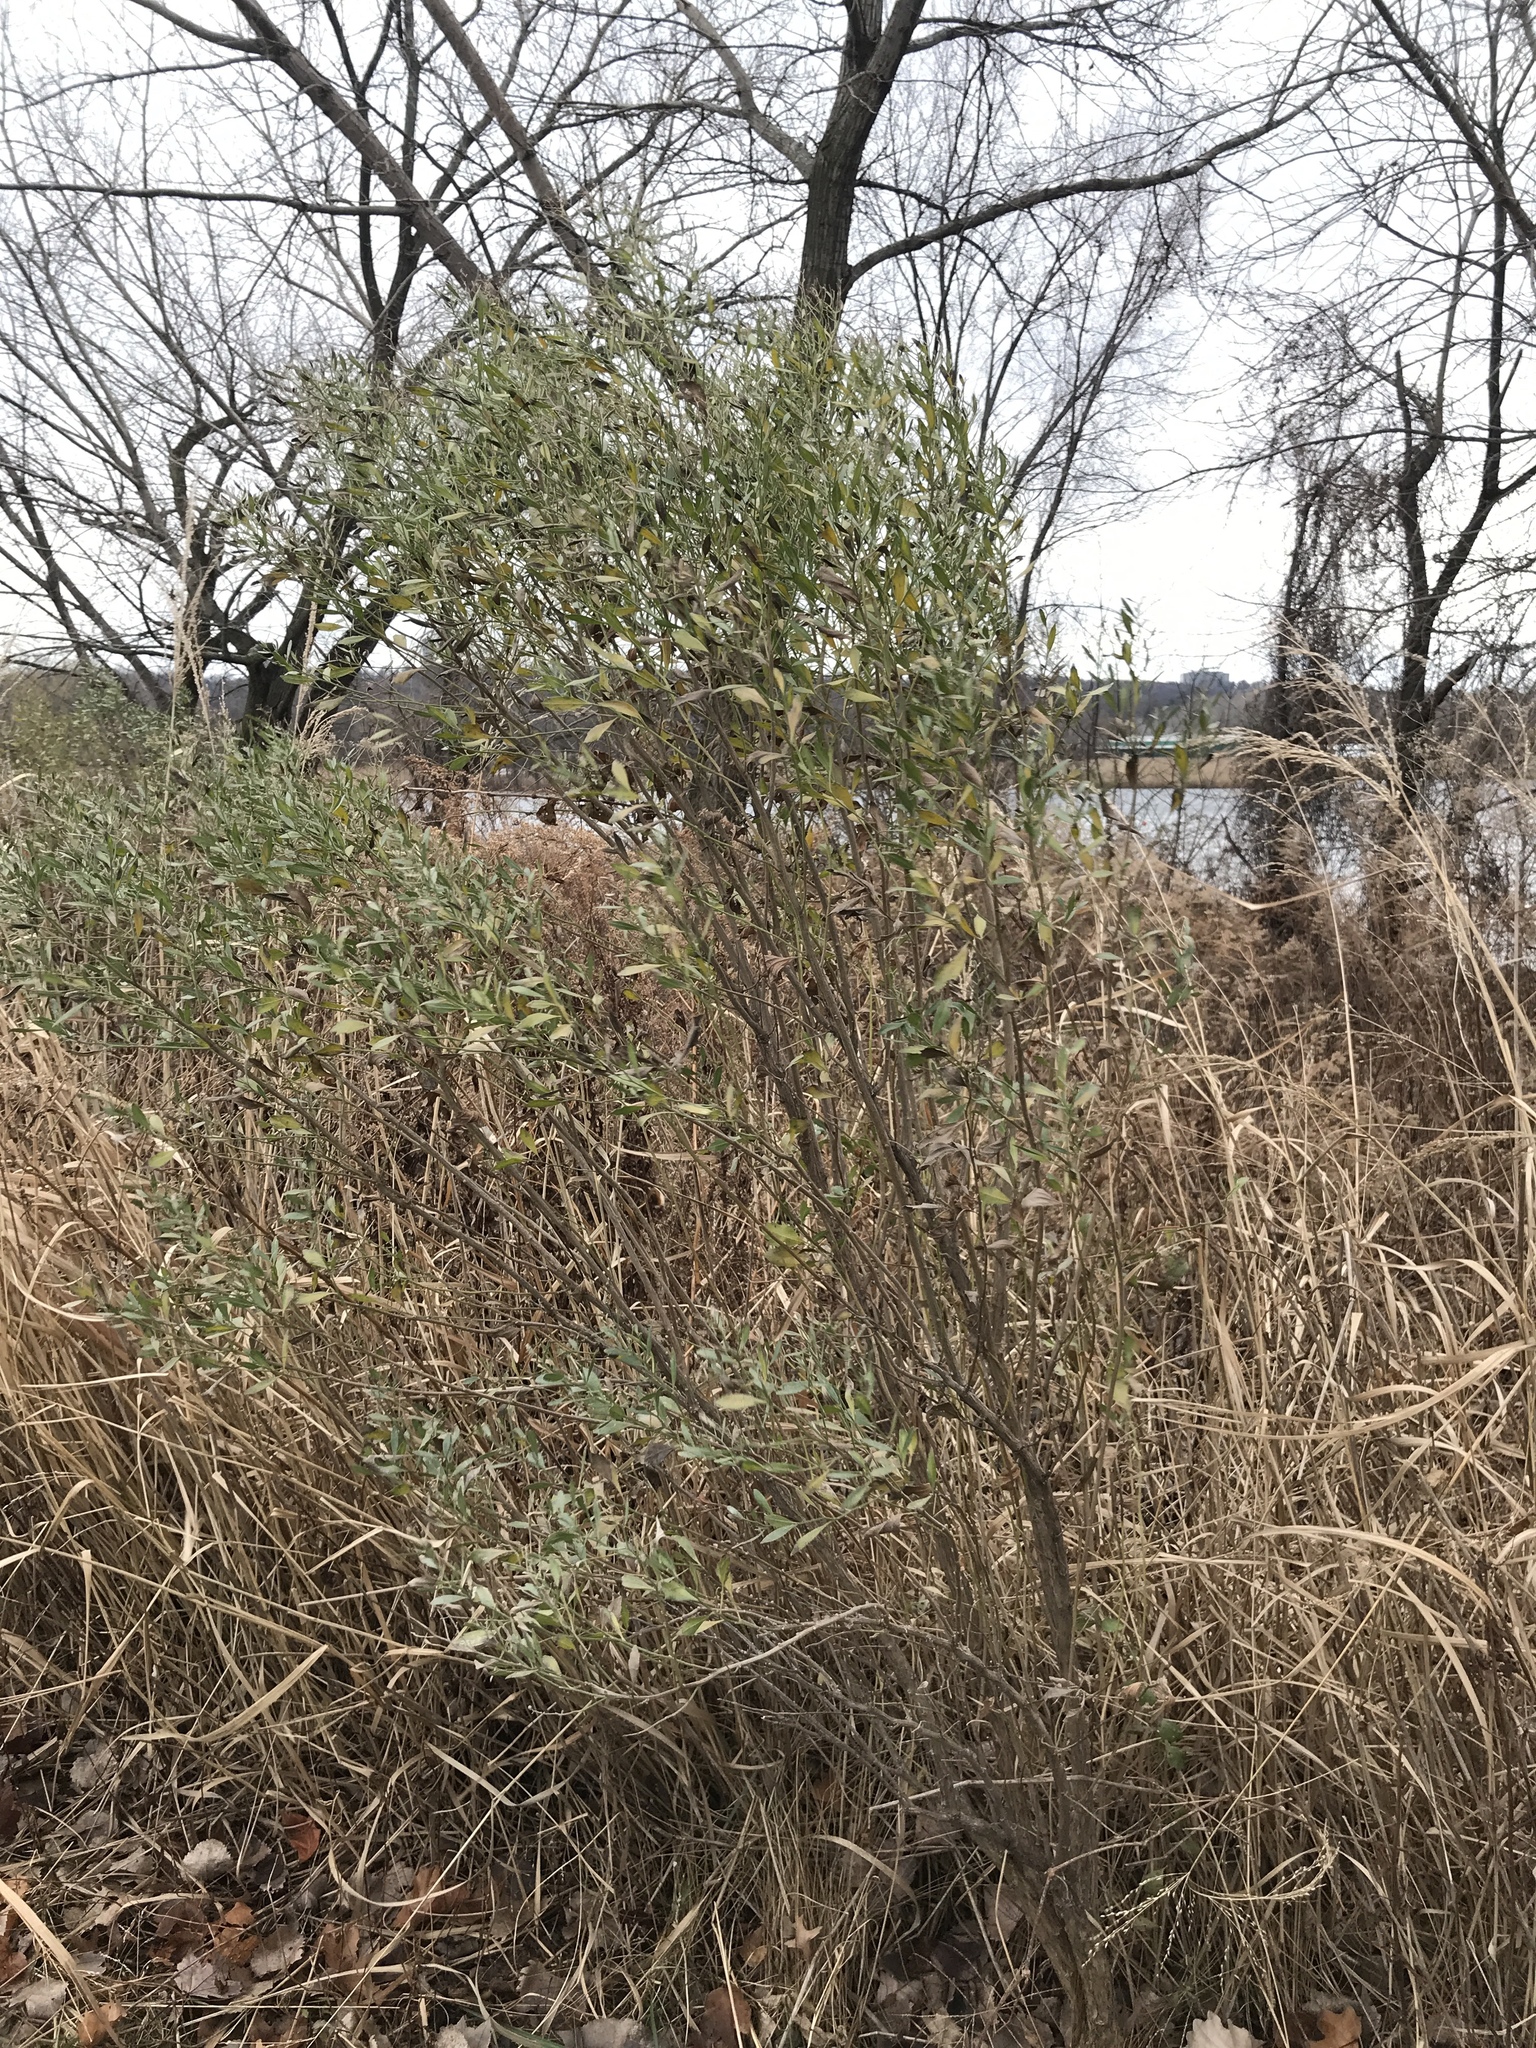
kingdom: Plantae
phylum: Tracheophyta
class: Magnoliopsida
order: Asterales
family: Asteraceae
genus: Baccharis
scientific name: Baccharis halimifolia
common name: Eastern baccharis
